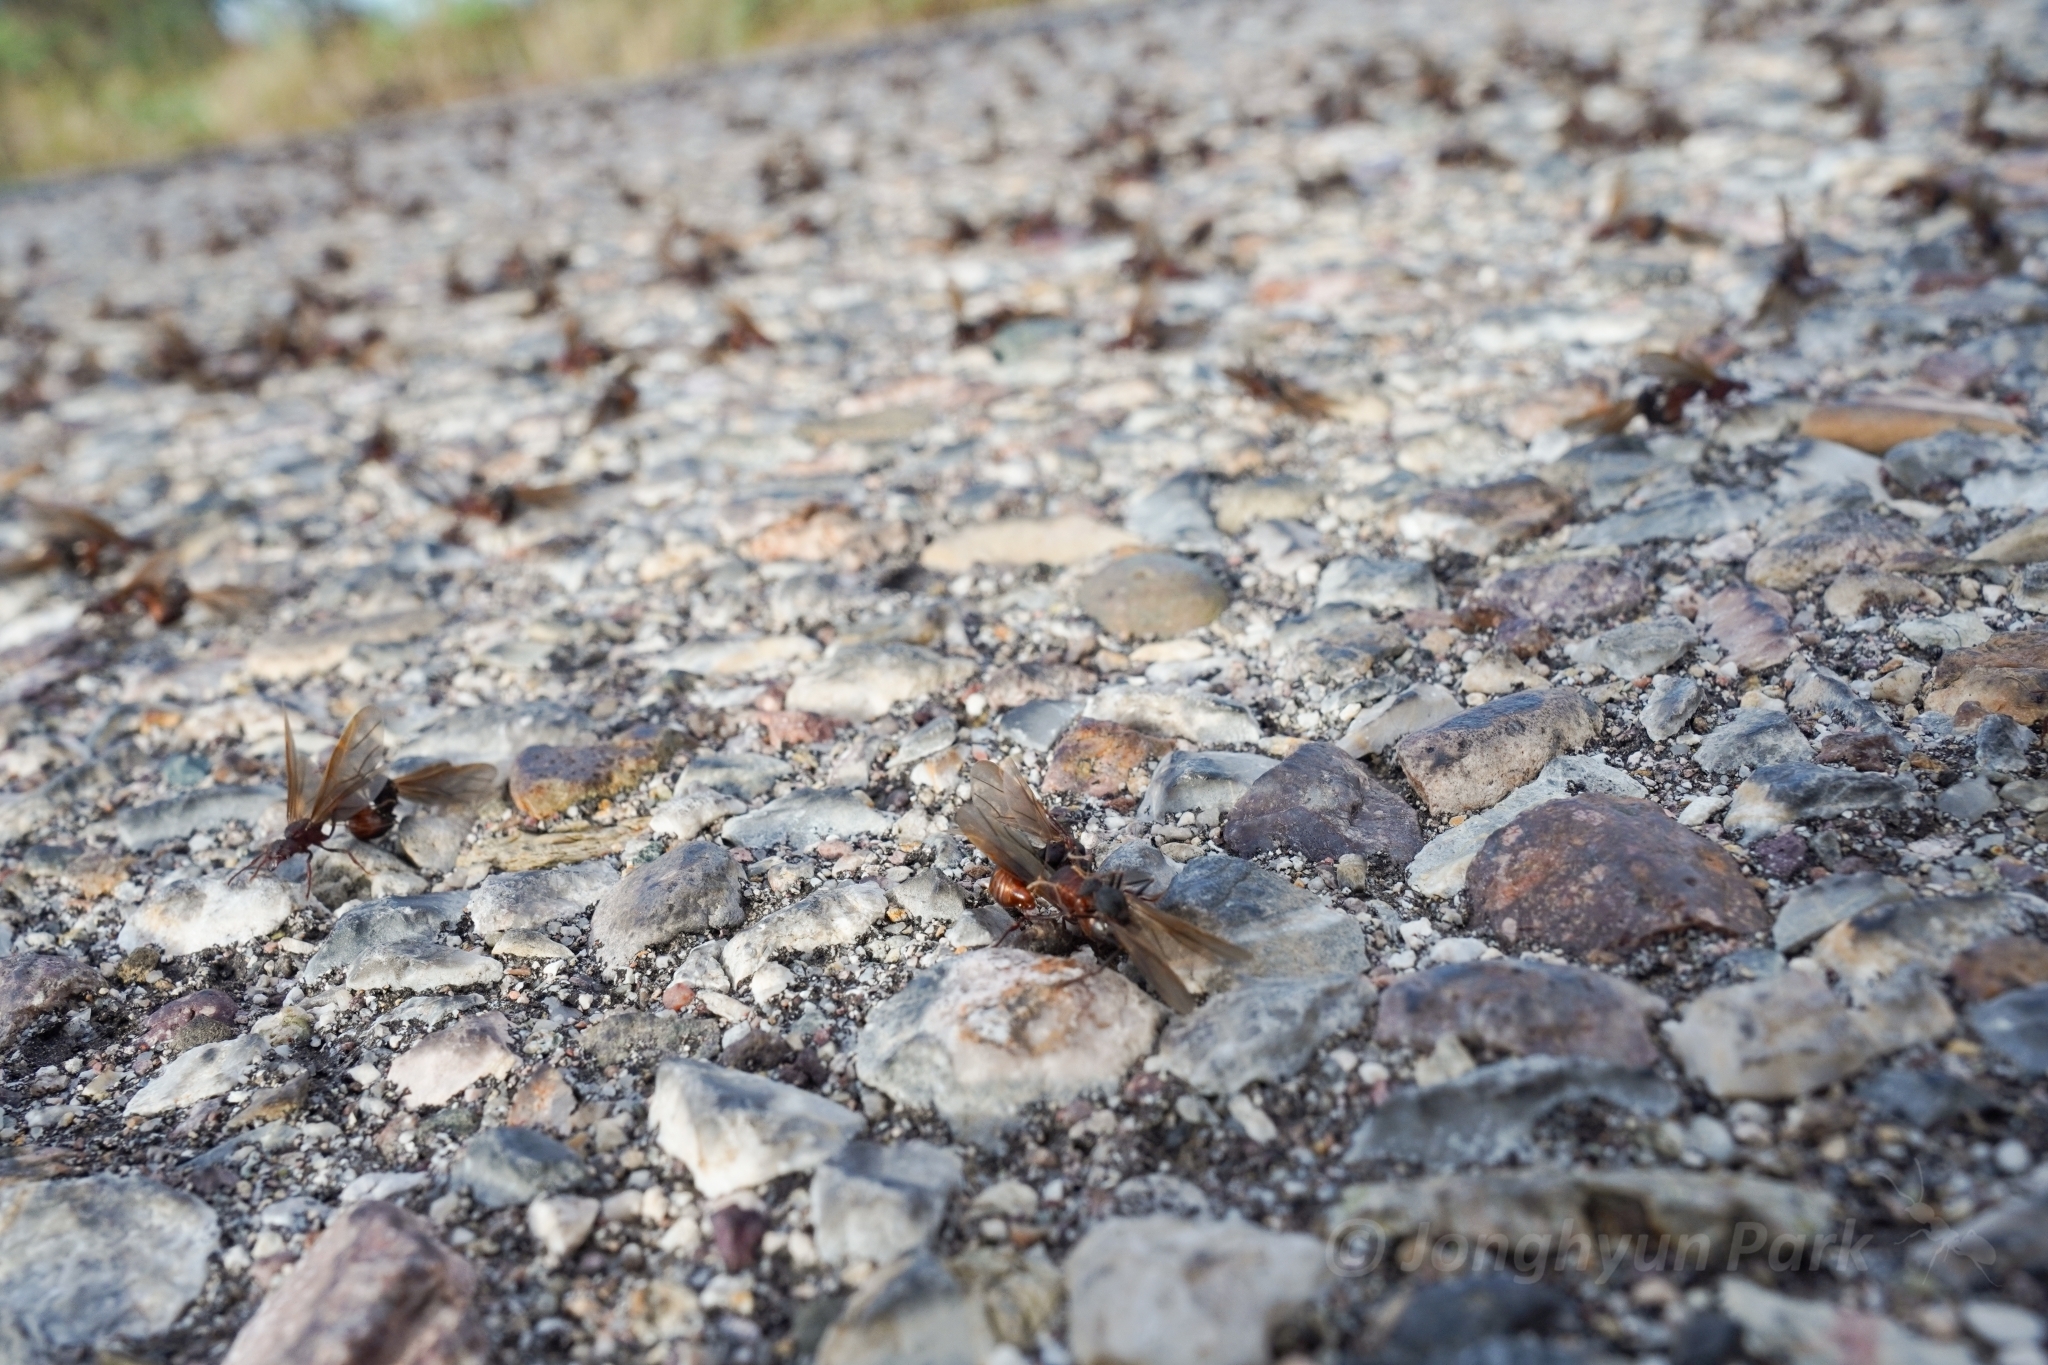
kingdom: Animalia
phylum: Arthropoda
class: Insecta
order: Hymenoptera
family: Formicidae
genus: Acromyrmex
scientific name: Acromyrmex versicolor
